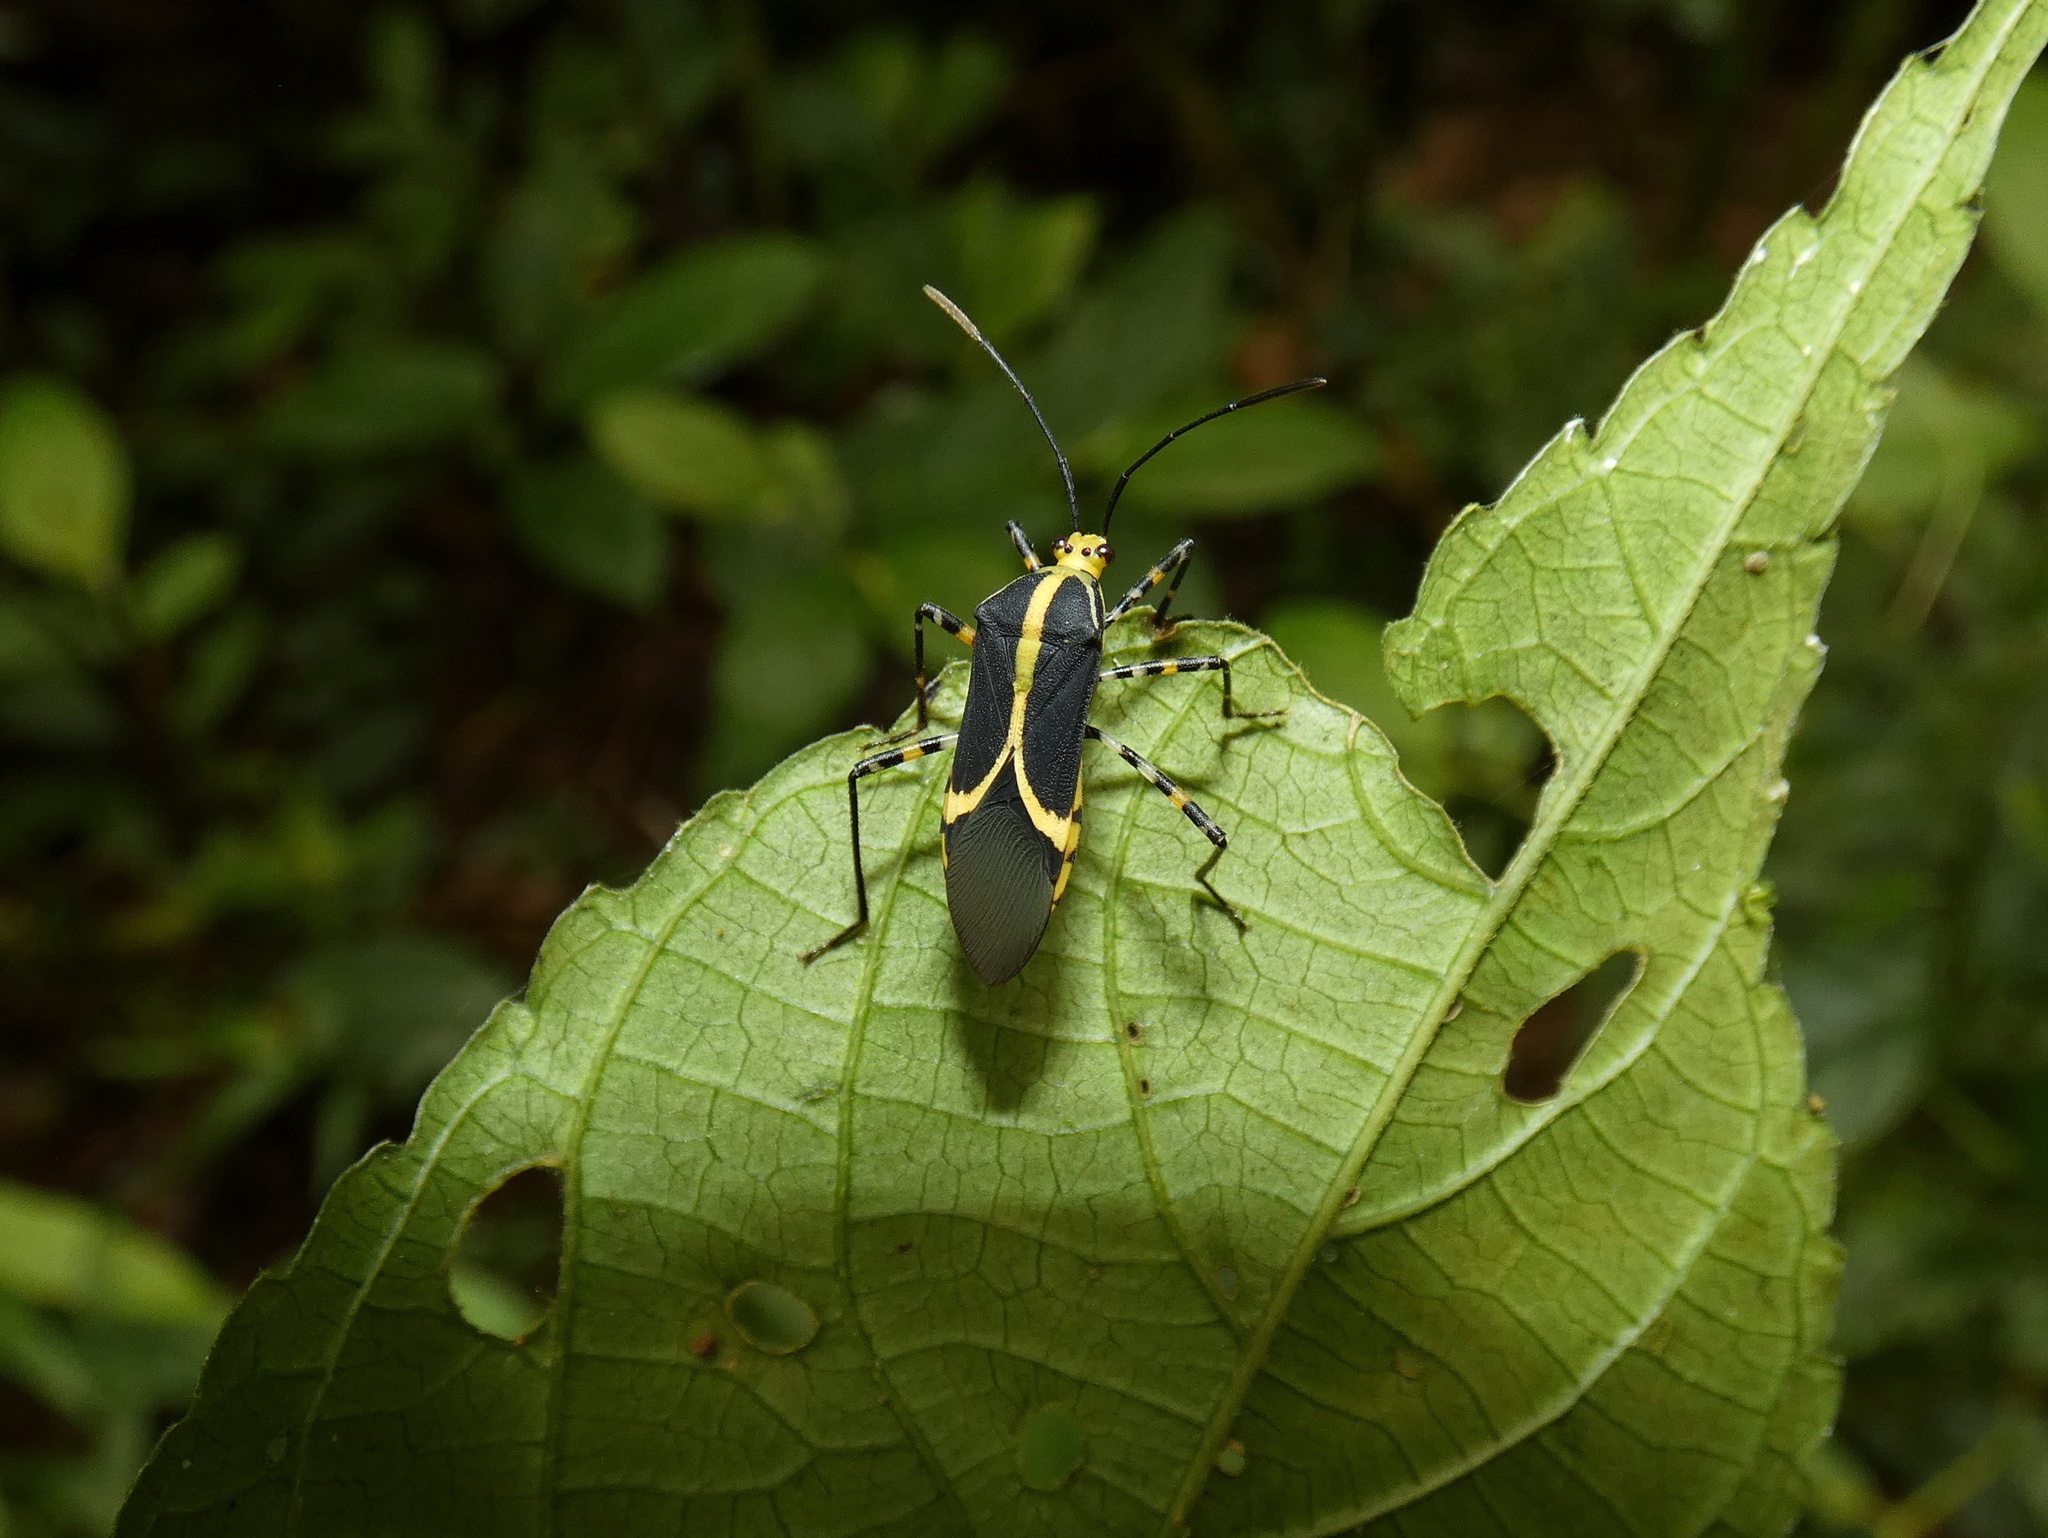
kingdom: Animalia
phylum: Arthropoda
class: Insecta
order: Hemiptera
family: Coreidae
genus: Hypselonotus
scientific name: Hypselonotus linea
